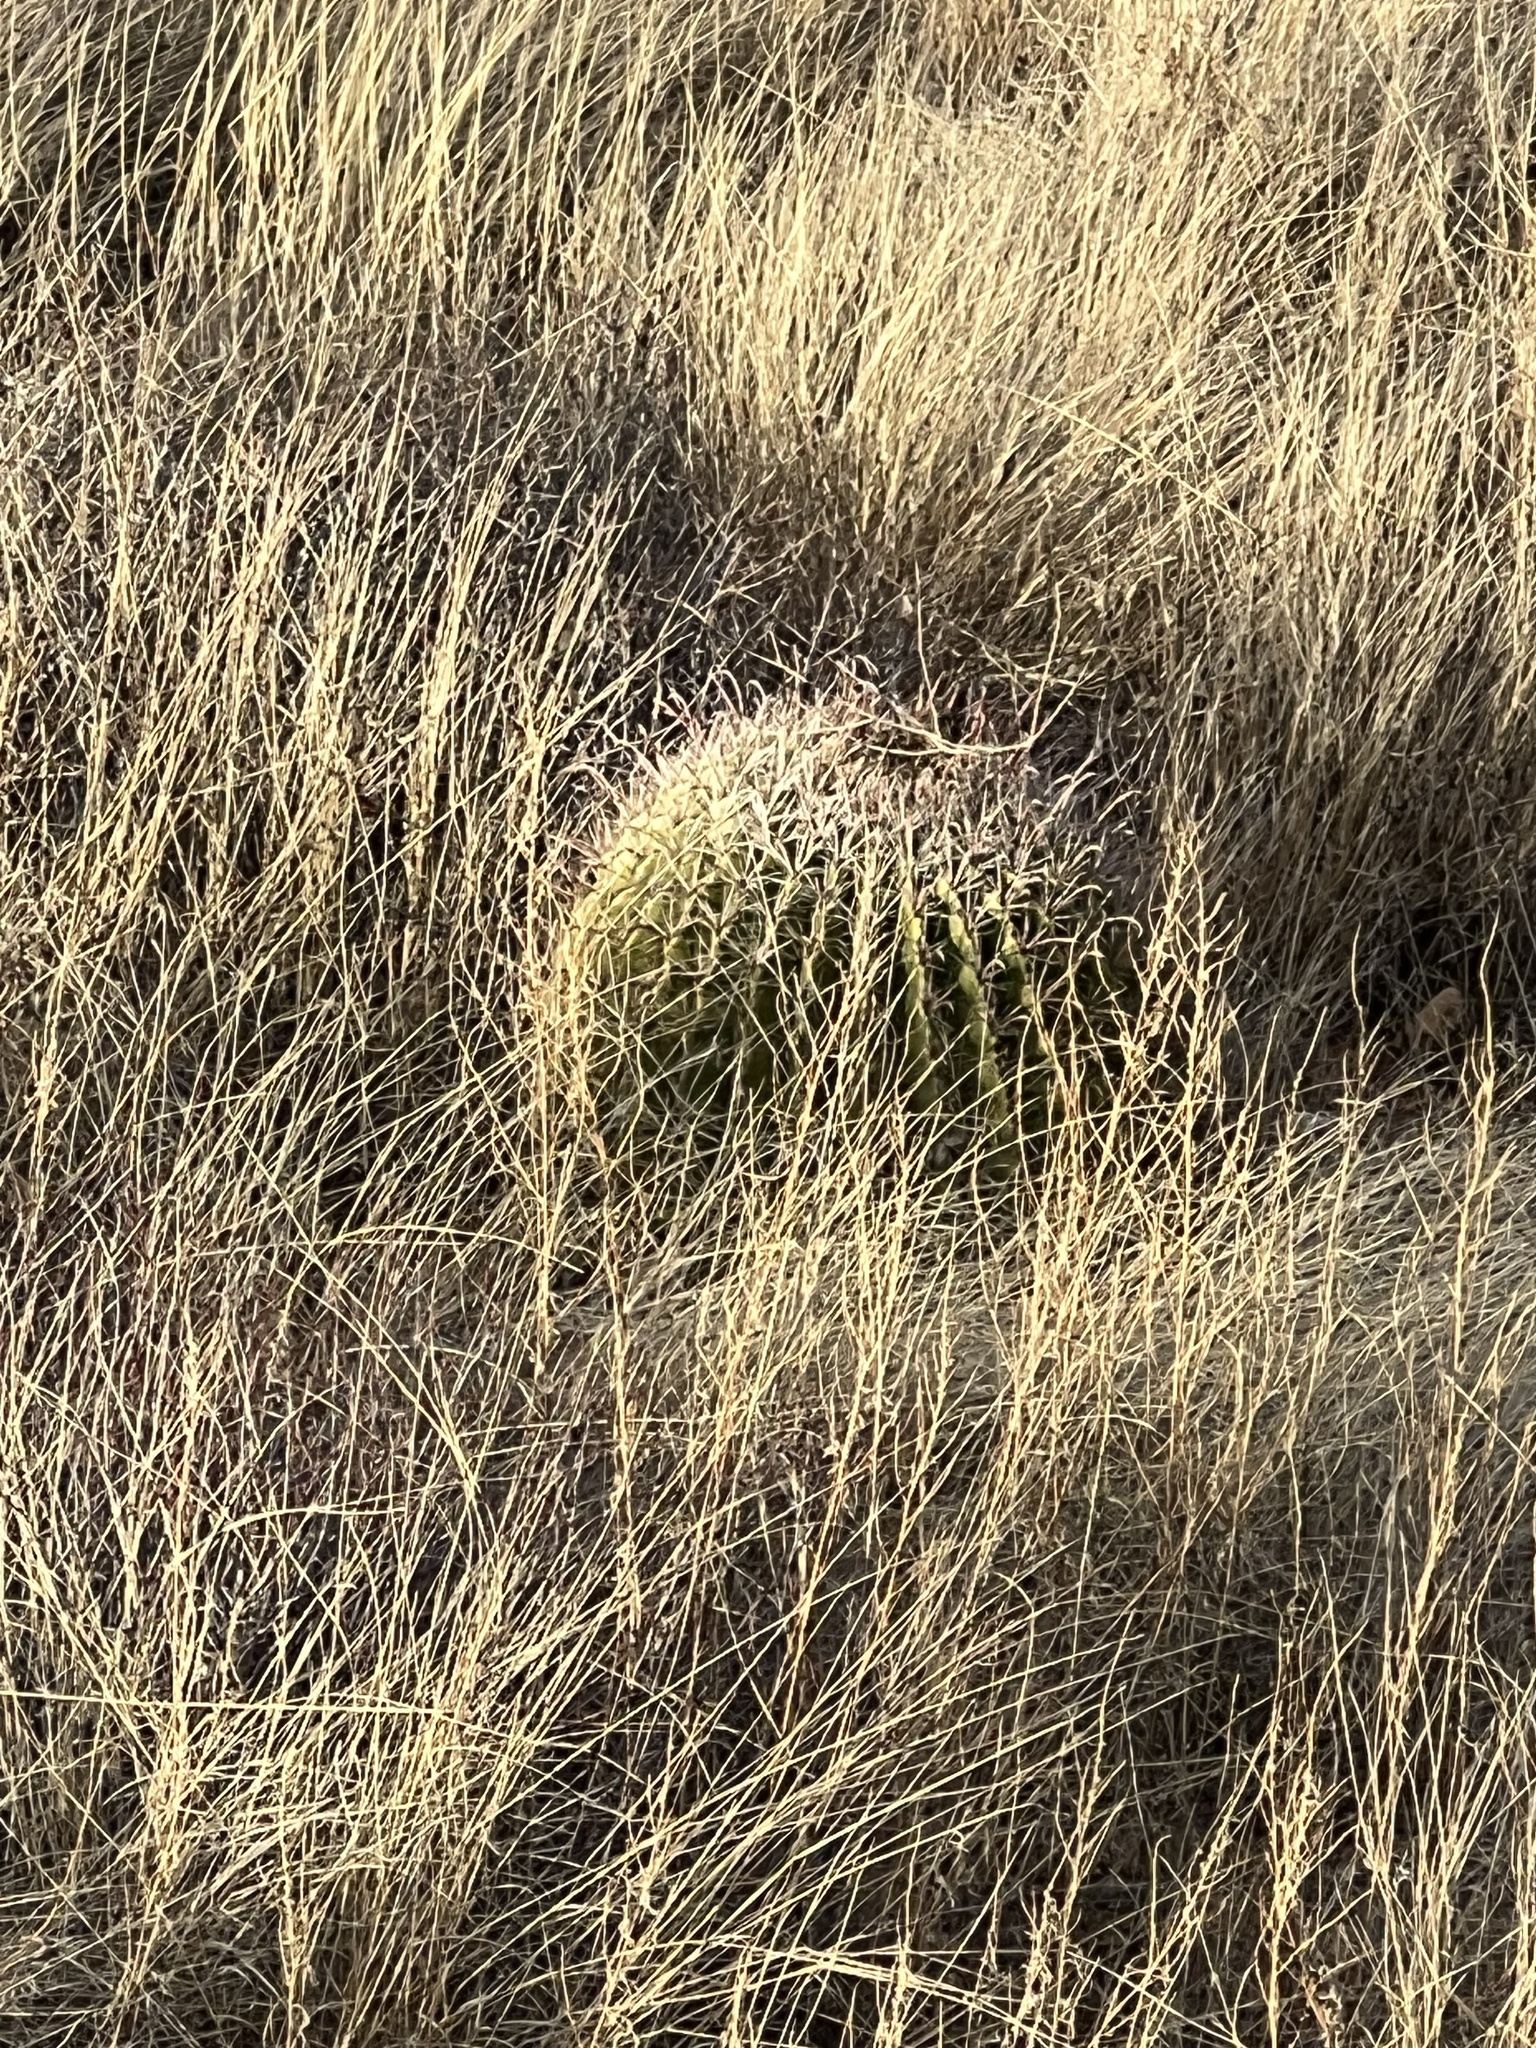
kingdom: Plantae
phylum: Tracheophyta
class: Magnoliopsida
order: Caryophyllales
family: Cactaceae
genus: Ferocactus
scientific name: Ferocactus wislizeni
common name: Candy barrel cactus
